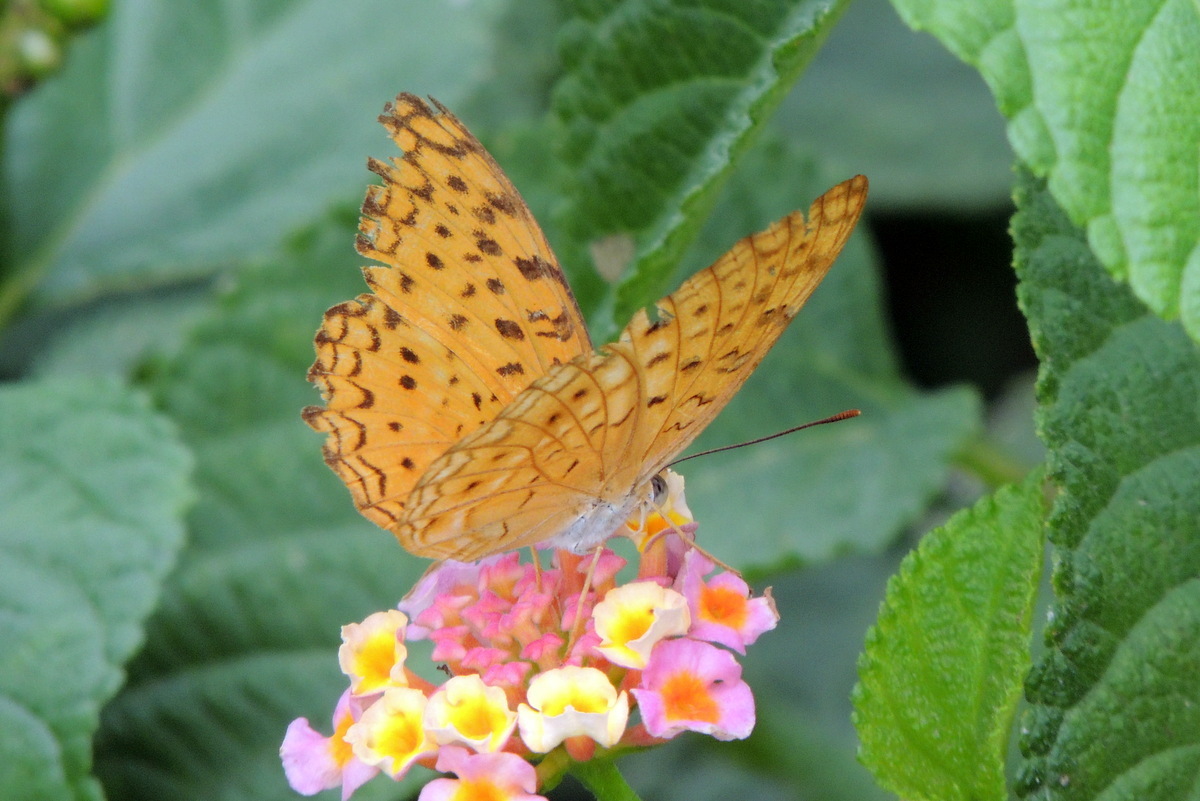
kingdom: Animalia
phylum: Arthropoda
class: Insecta
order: Lepidoptera
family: Nymphalidae
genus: Phalanta
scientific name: Phalanta phalantha
